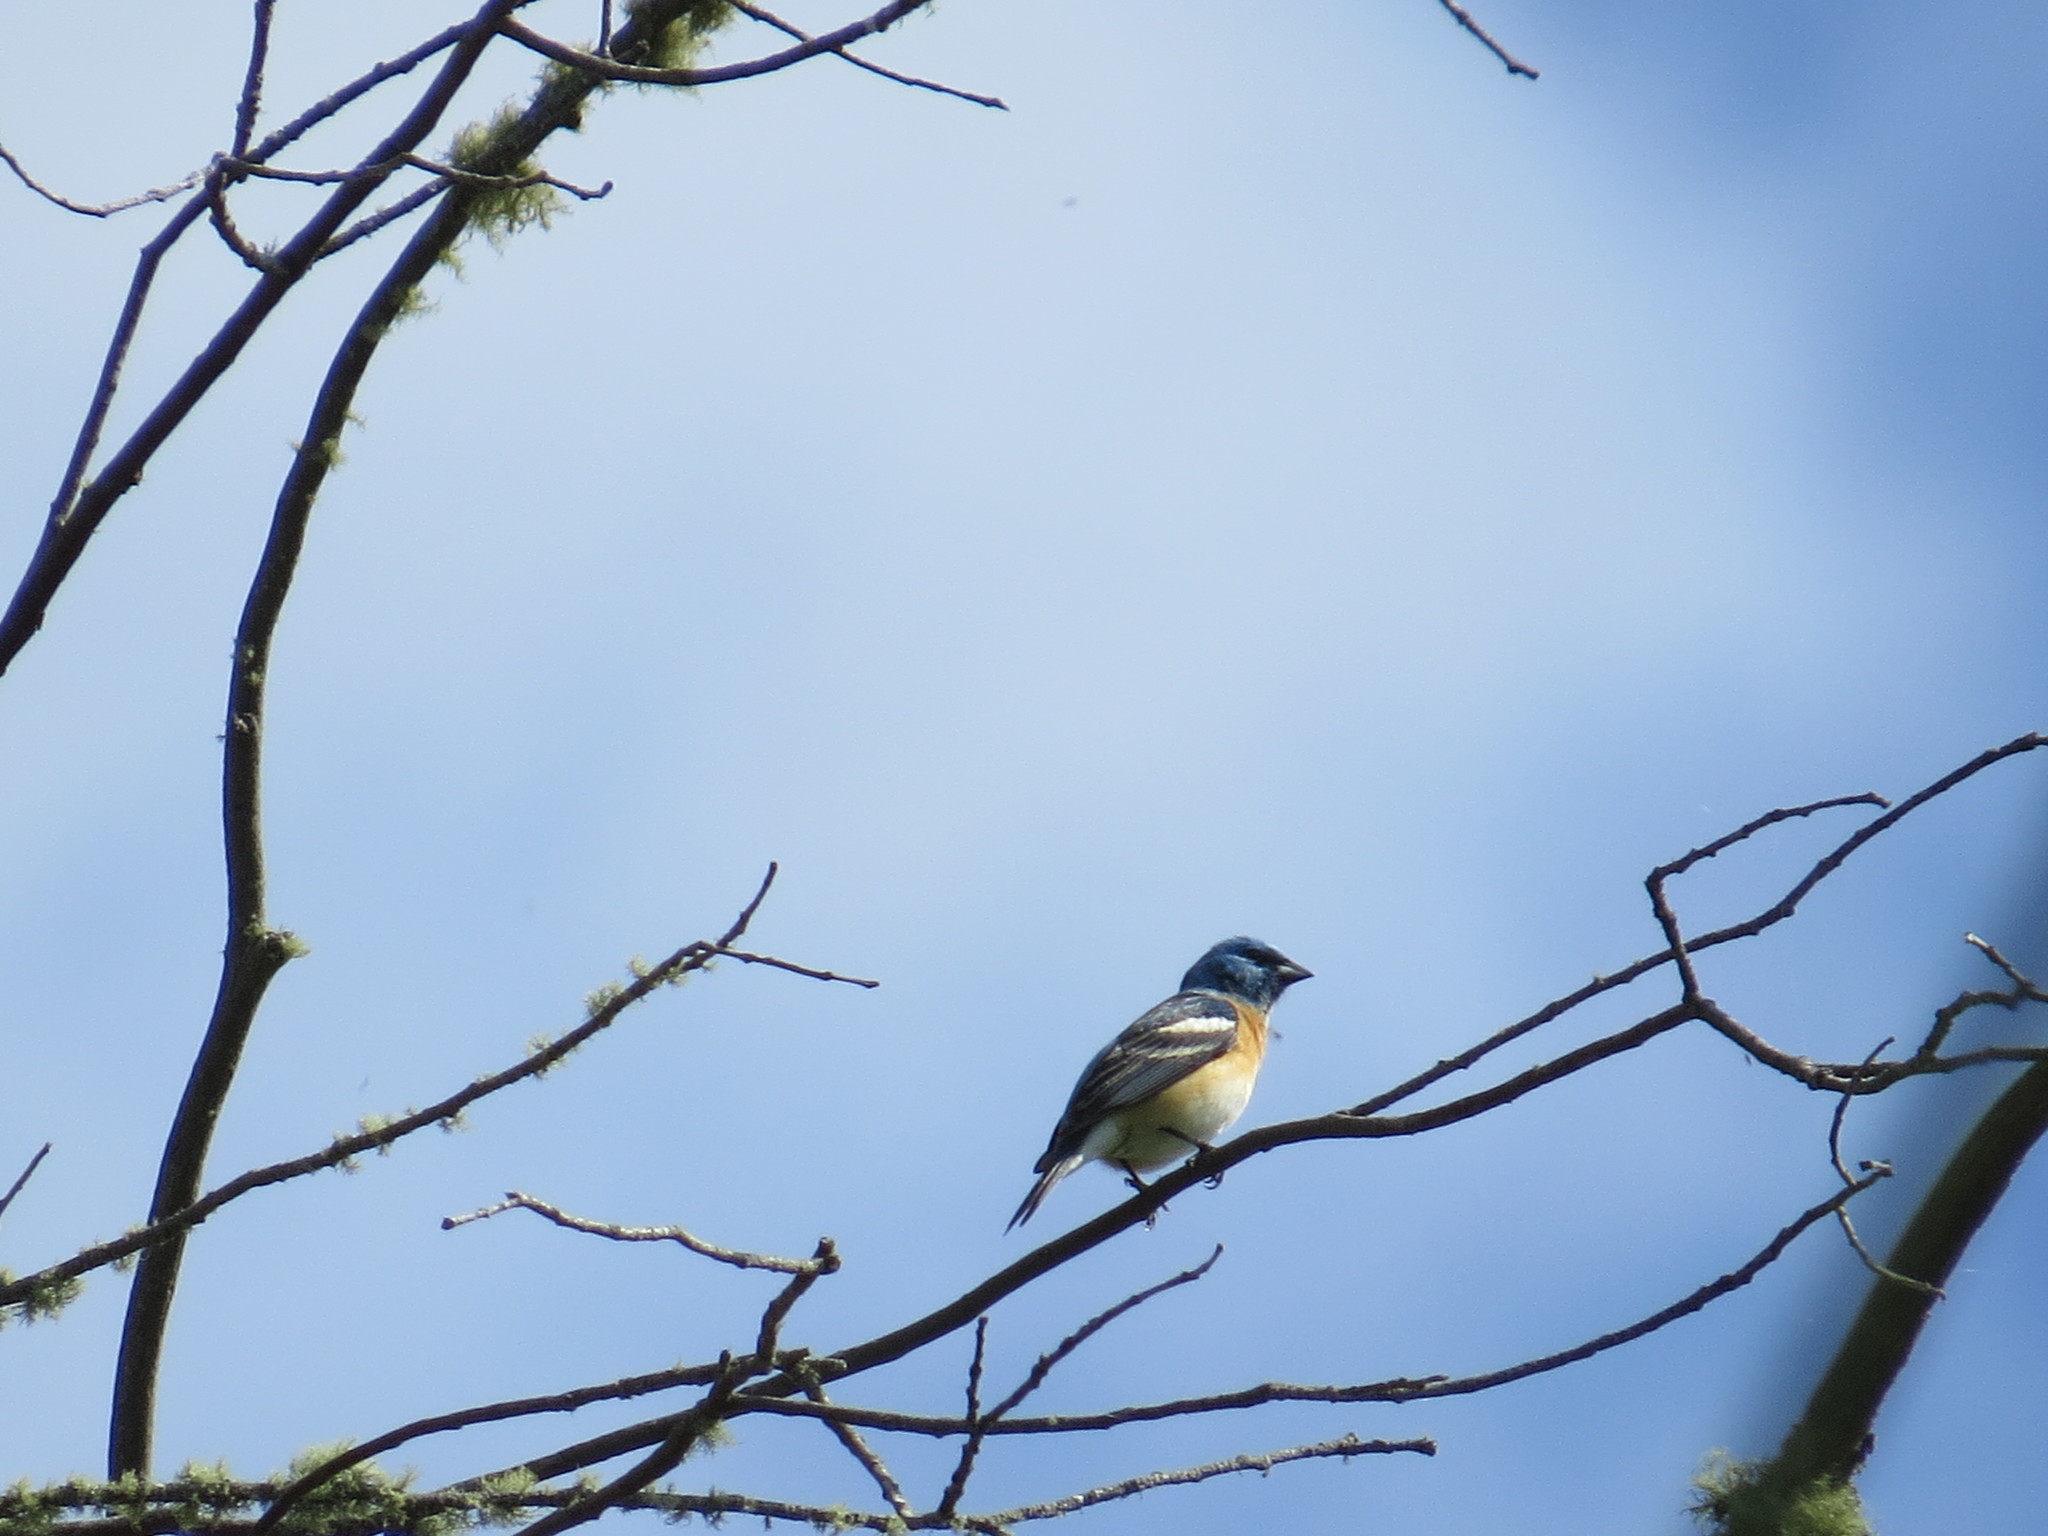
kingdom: Animalia
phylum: Chordata
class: Aves
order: Passeriformes
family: Cardinalidae
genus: Passerina
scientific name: Passerina amoena
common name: Lazuli bunting
